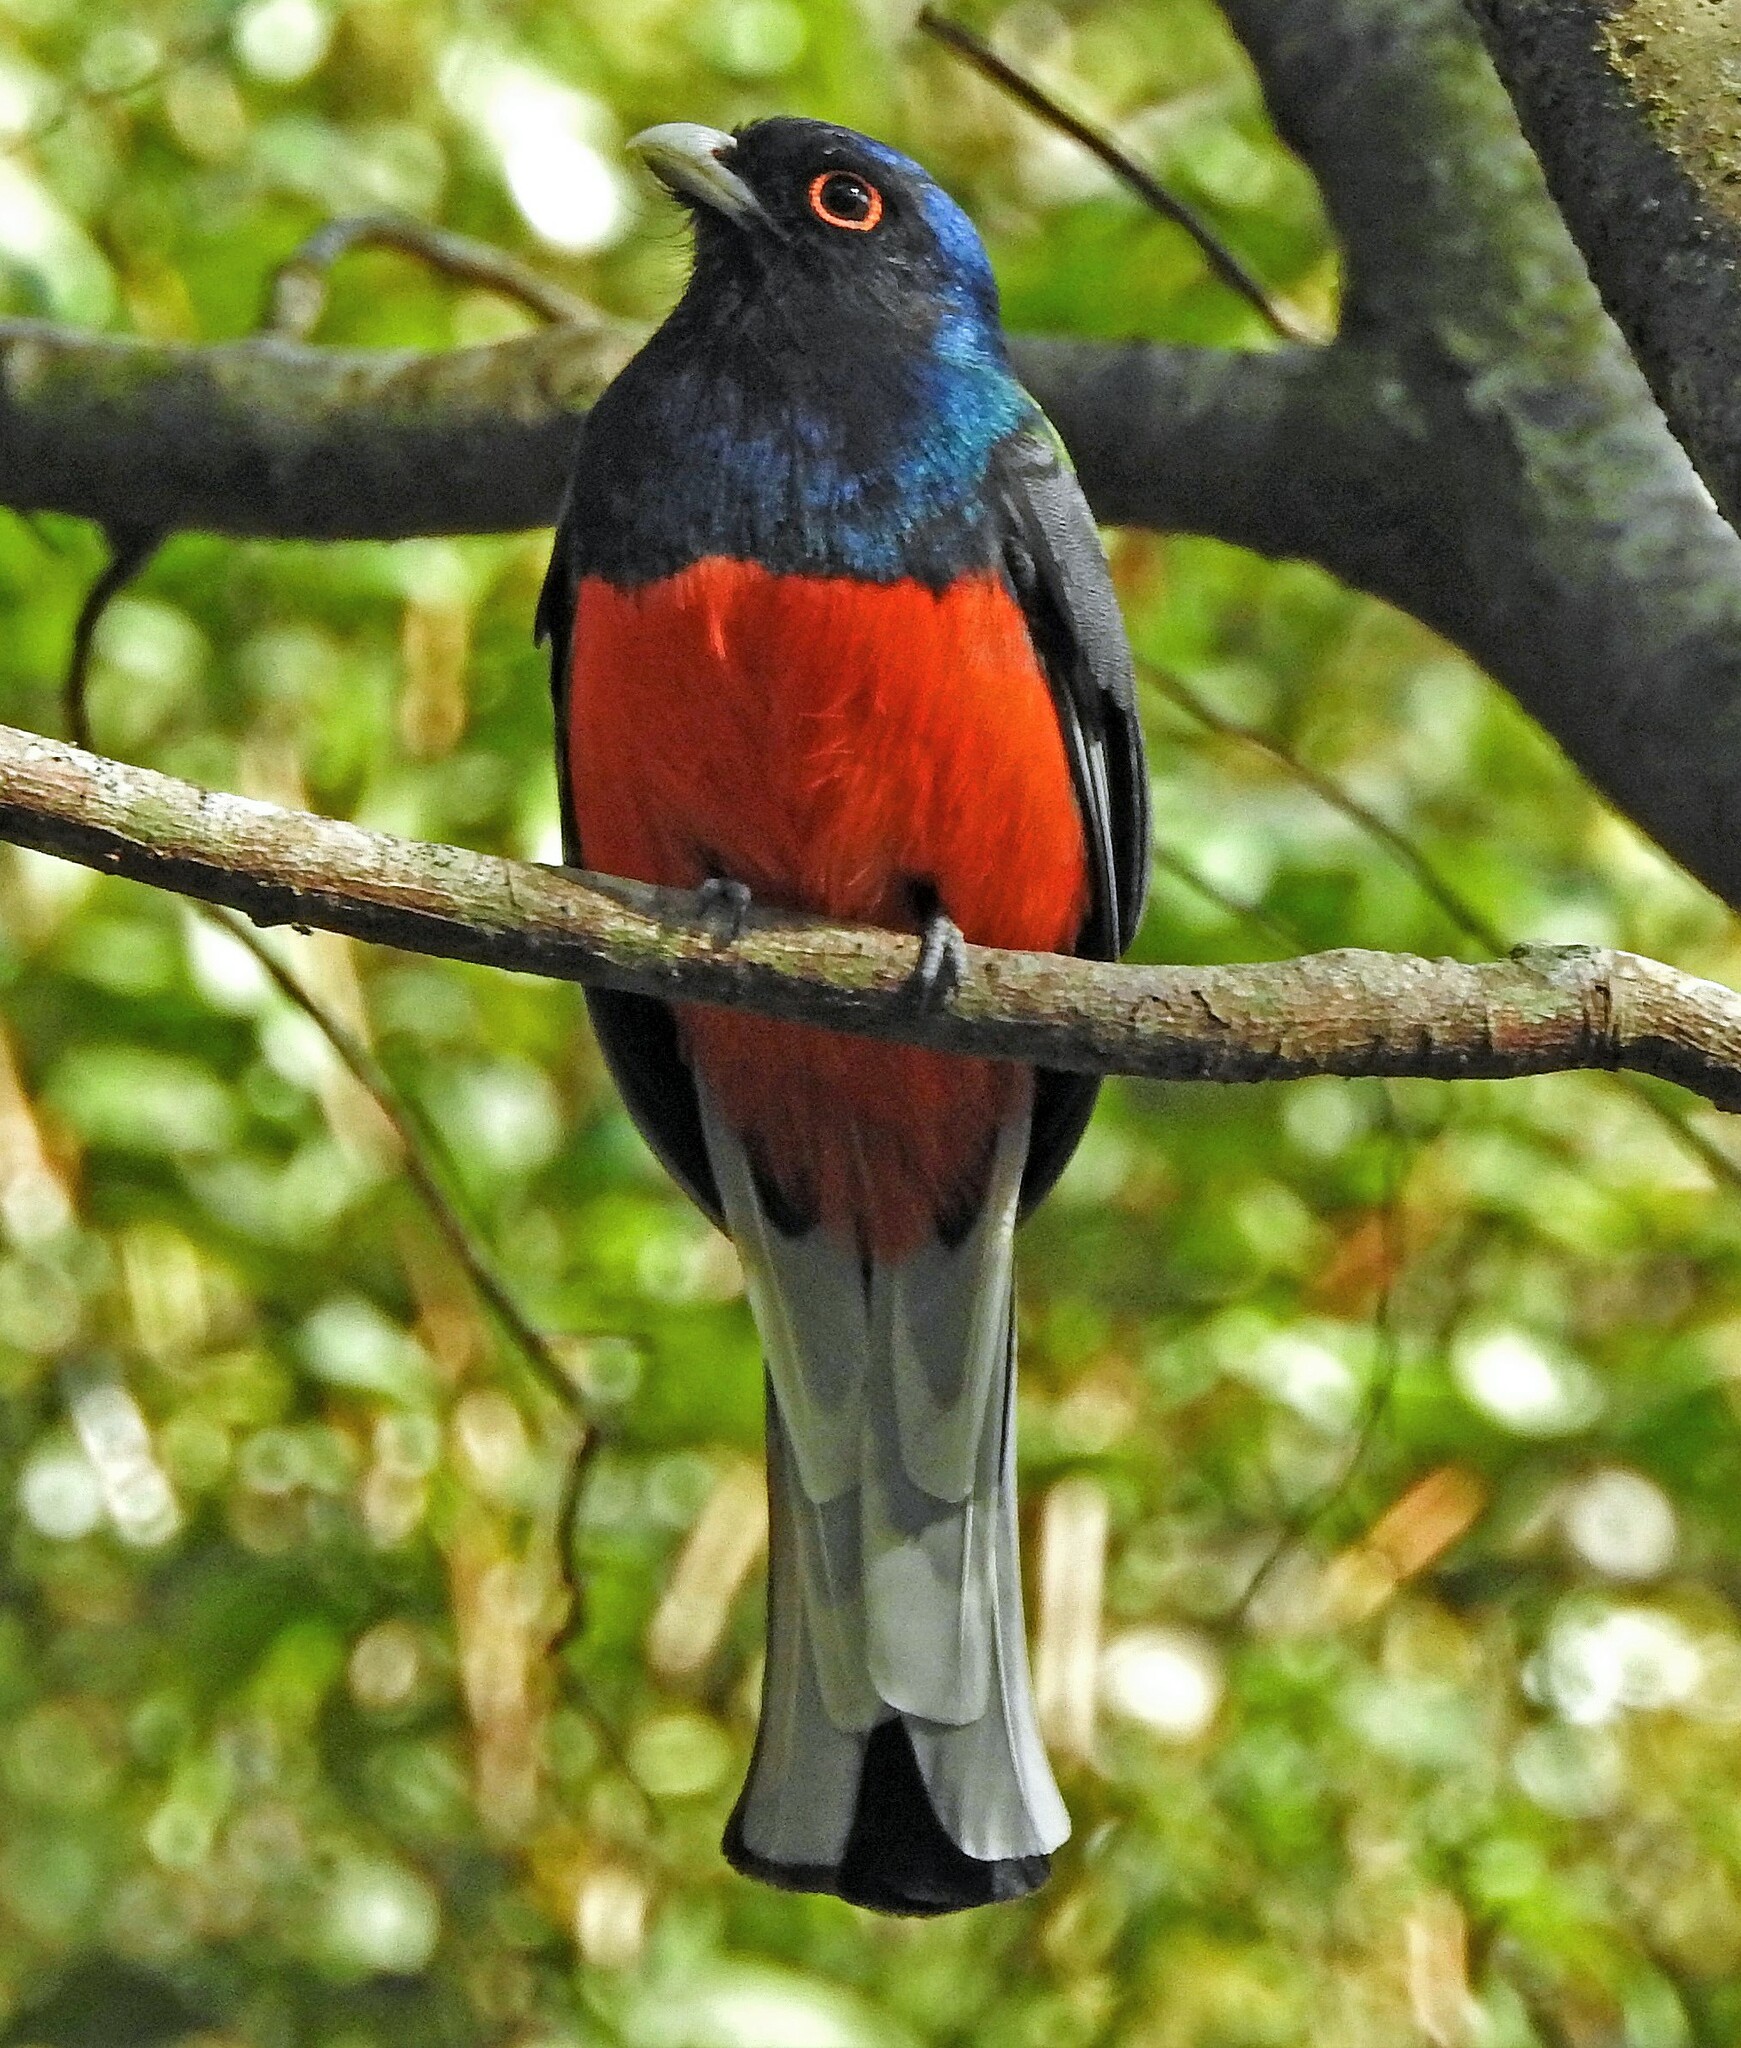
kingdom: Animalia
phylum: Chordata
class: Aves
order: Trogoniformes
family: Trogonidae
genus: Trogon
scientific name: Trogon surrucura
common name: Surucua trogon
